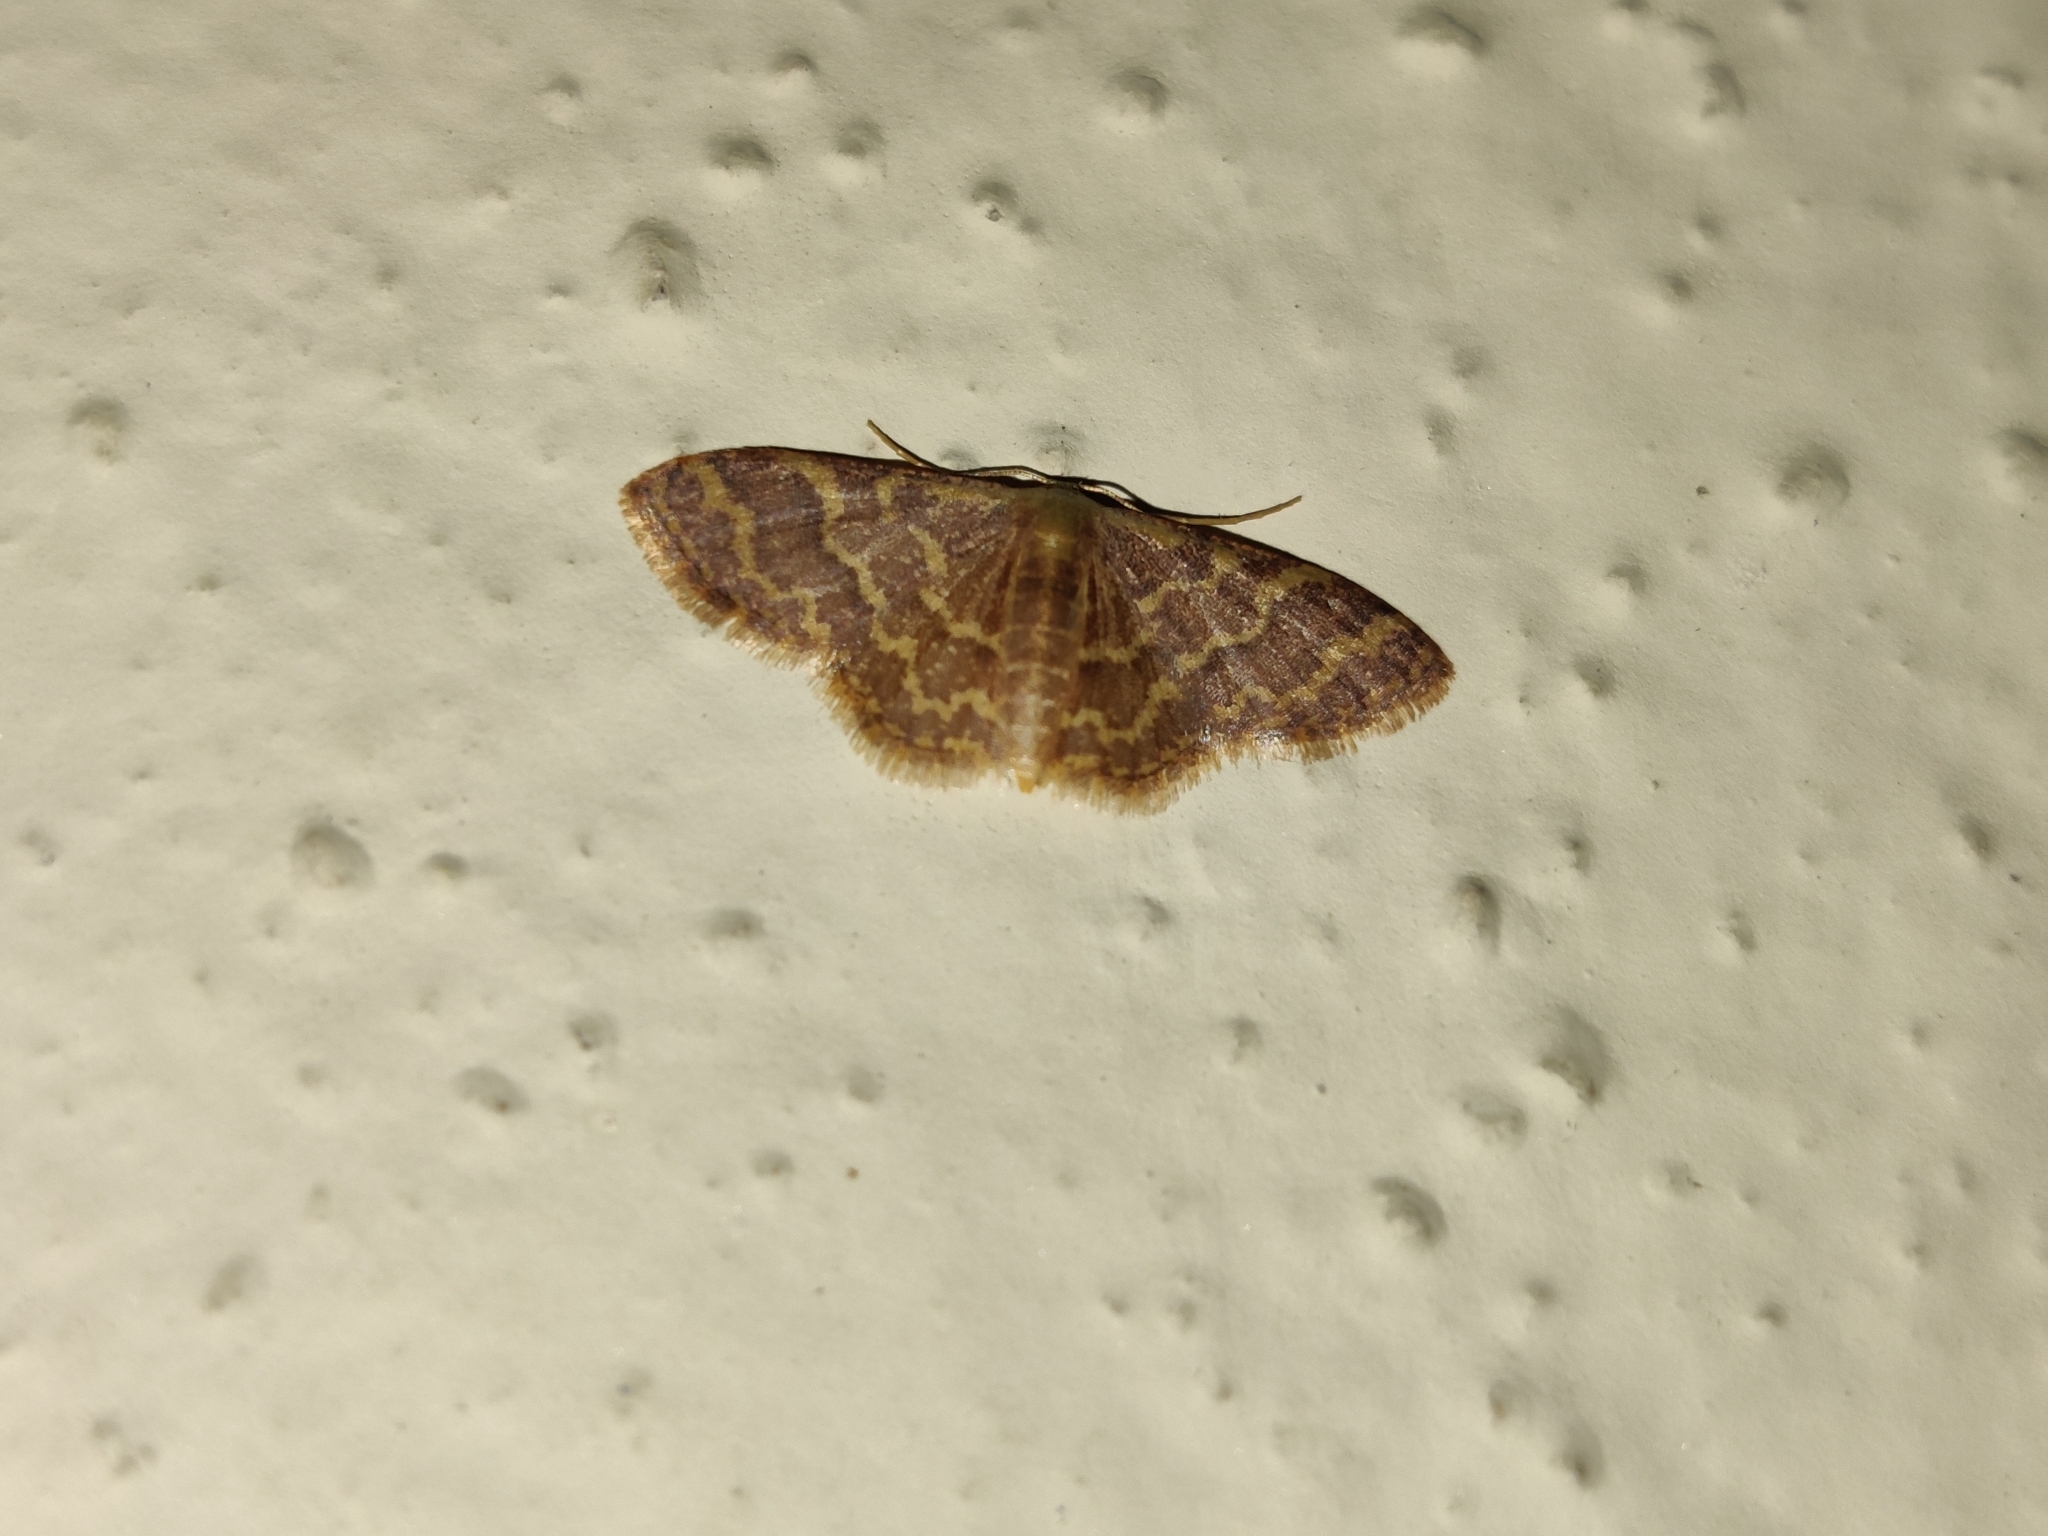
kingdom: Animalia
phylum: Arthropoda
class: Insecta
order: Lepidoptera
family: Geometridae
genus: Lophophleps
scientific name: Lophophleps phoenicoptera
